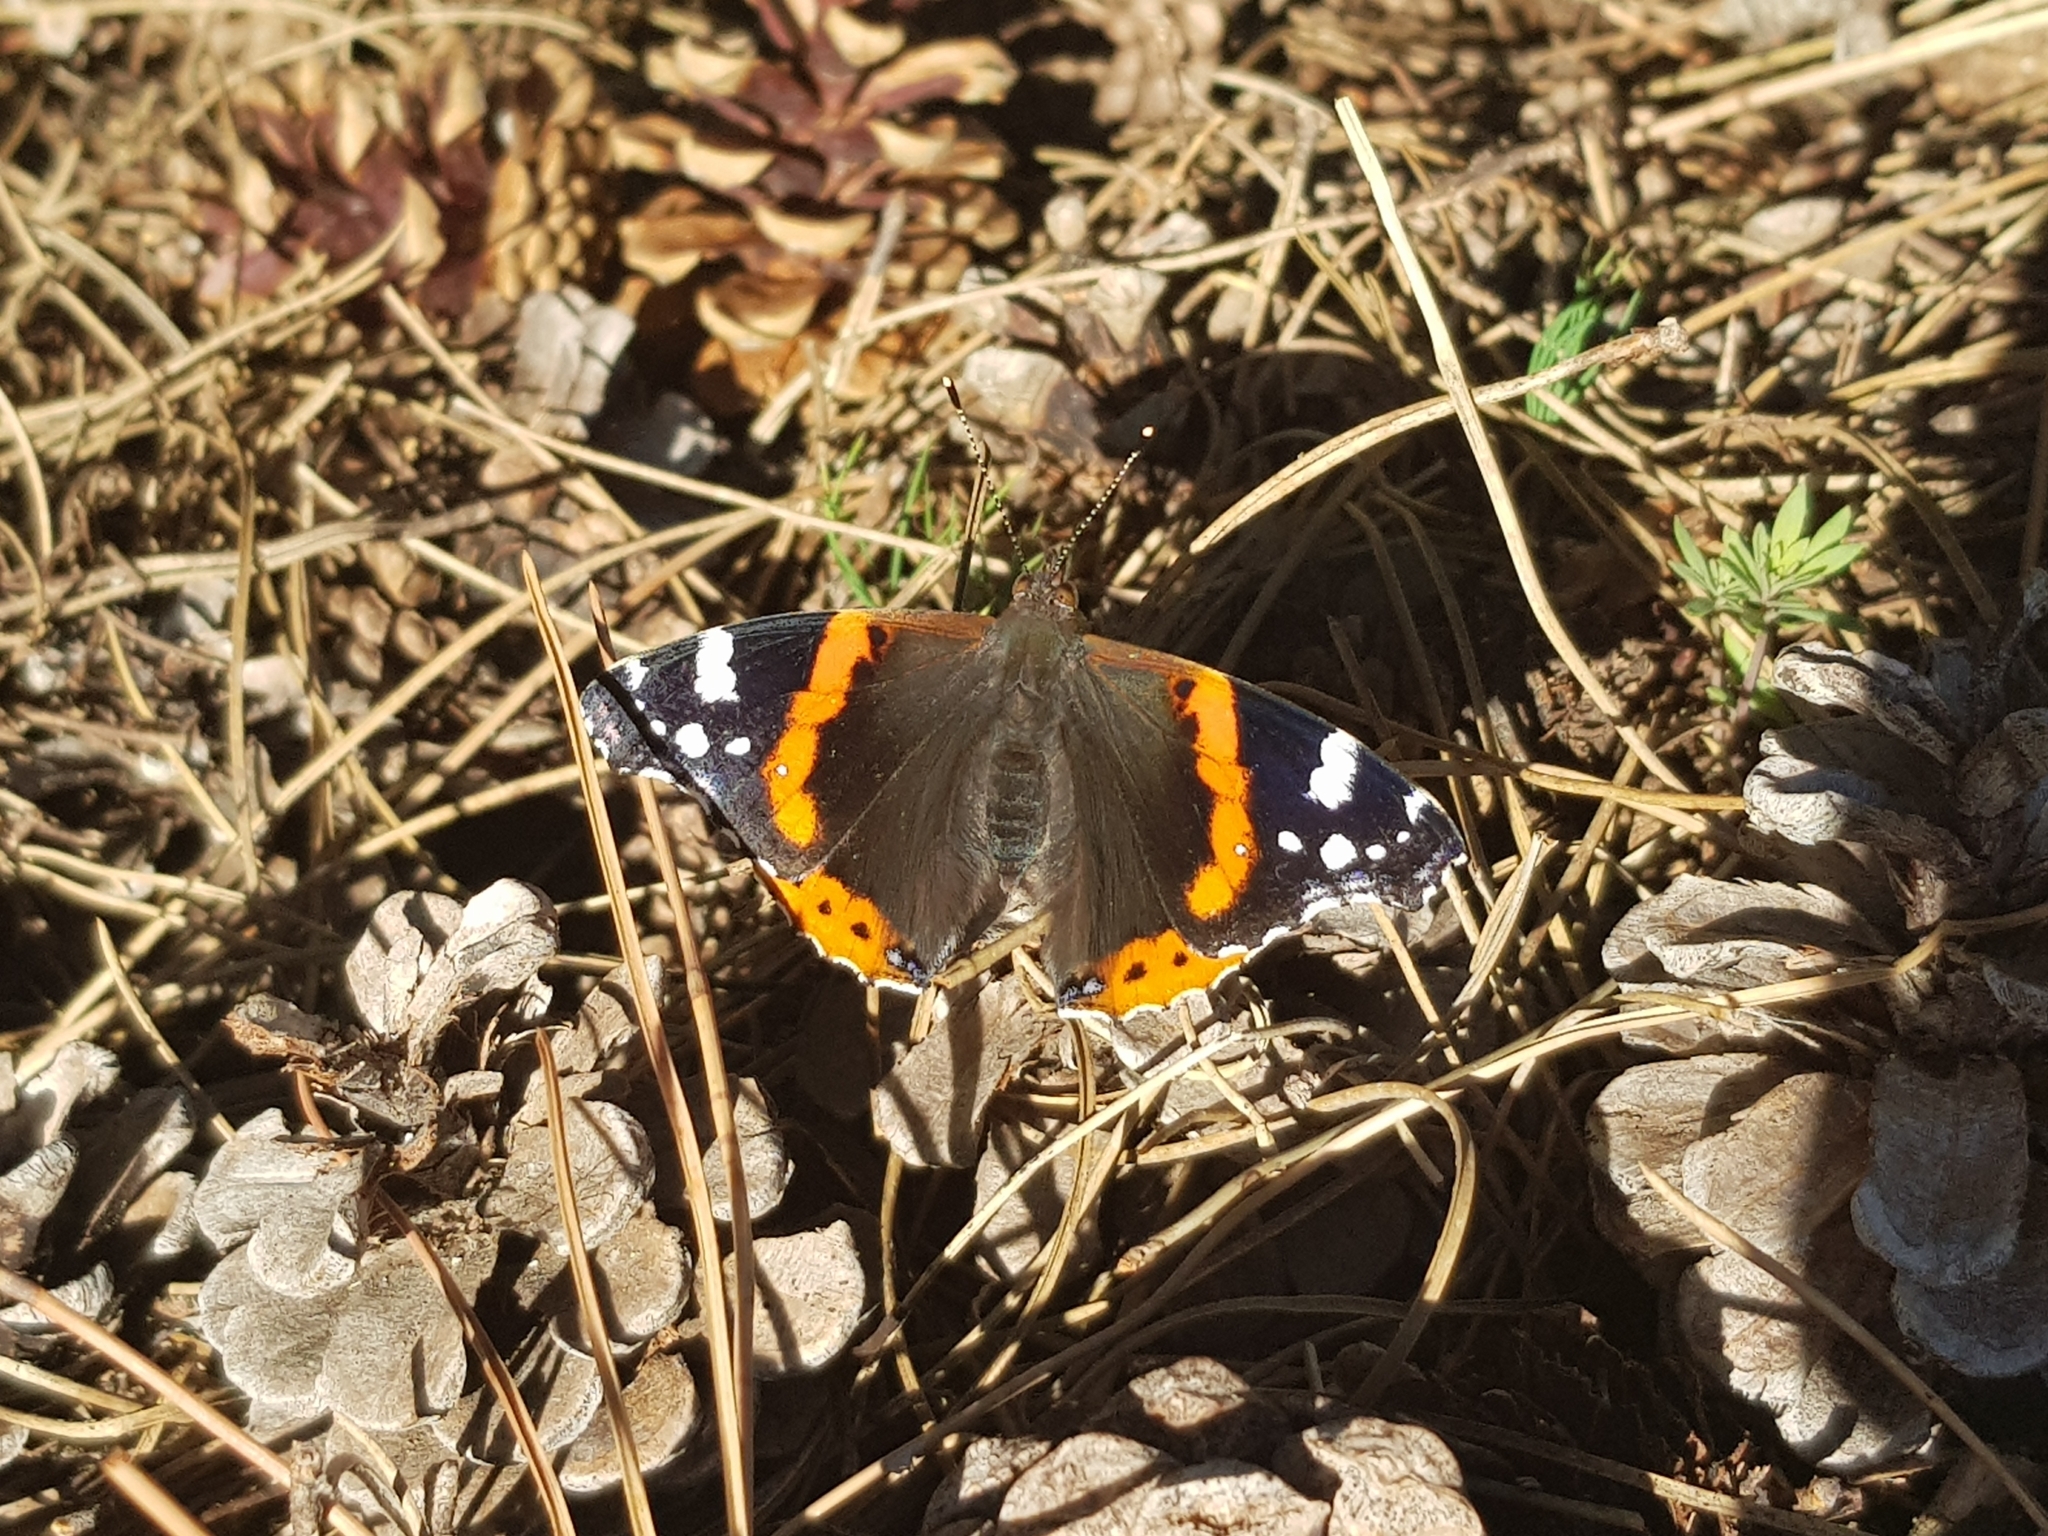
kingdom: Animalia
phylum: Arthropoda
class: Insecta
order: Lepidoptera
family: Nymphalidae
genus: Vanessa
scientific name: Vanessa atalanta
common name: Red admiral
